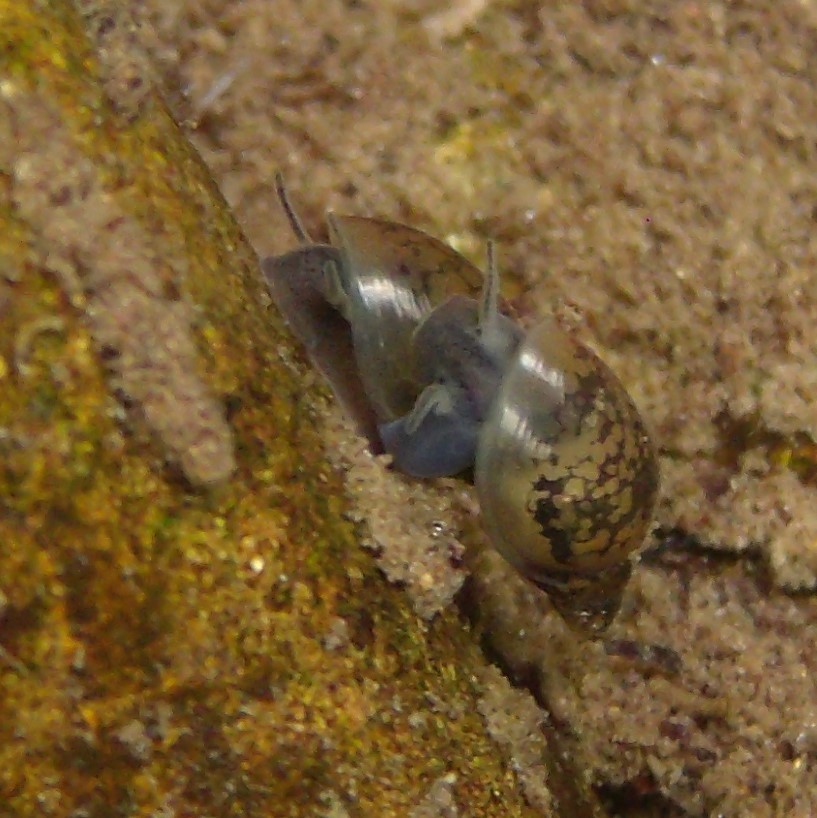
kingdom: Animalia
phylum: Mollusca
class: Gastropoda
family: Physidae
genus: Physella
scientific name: Physella acuta
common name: European physa
